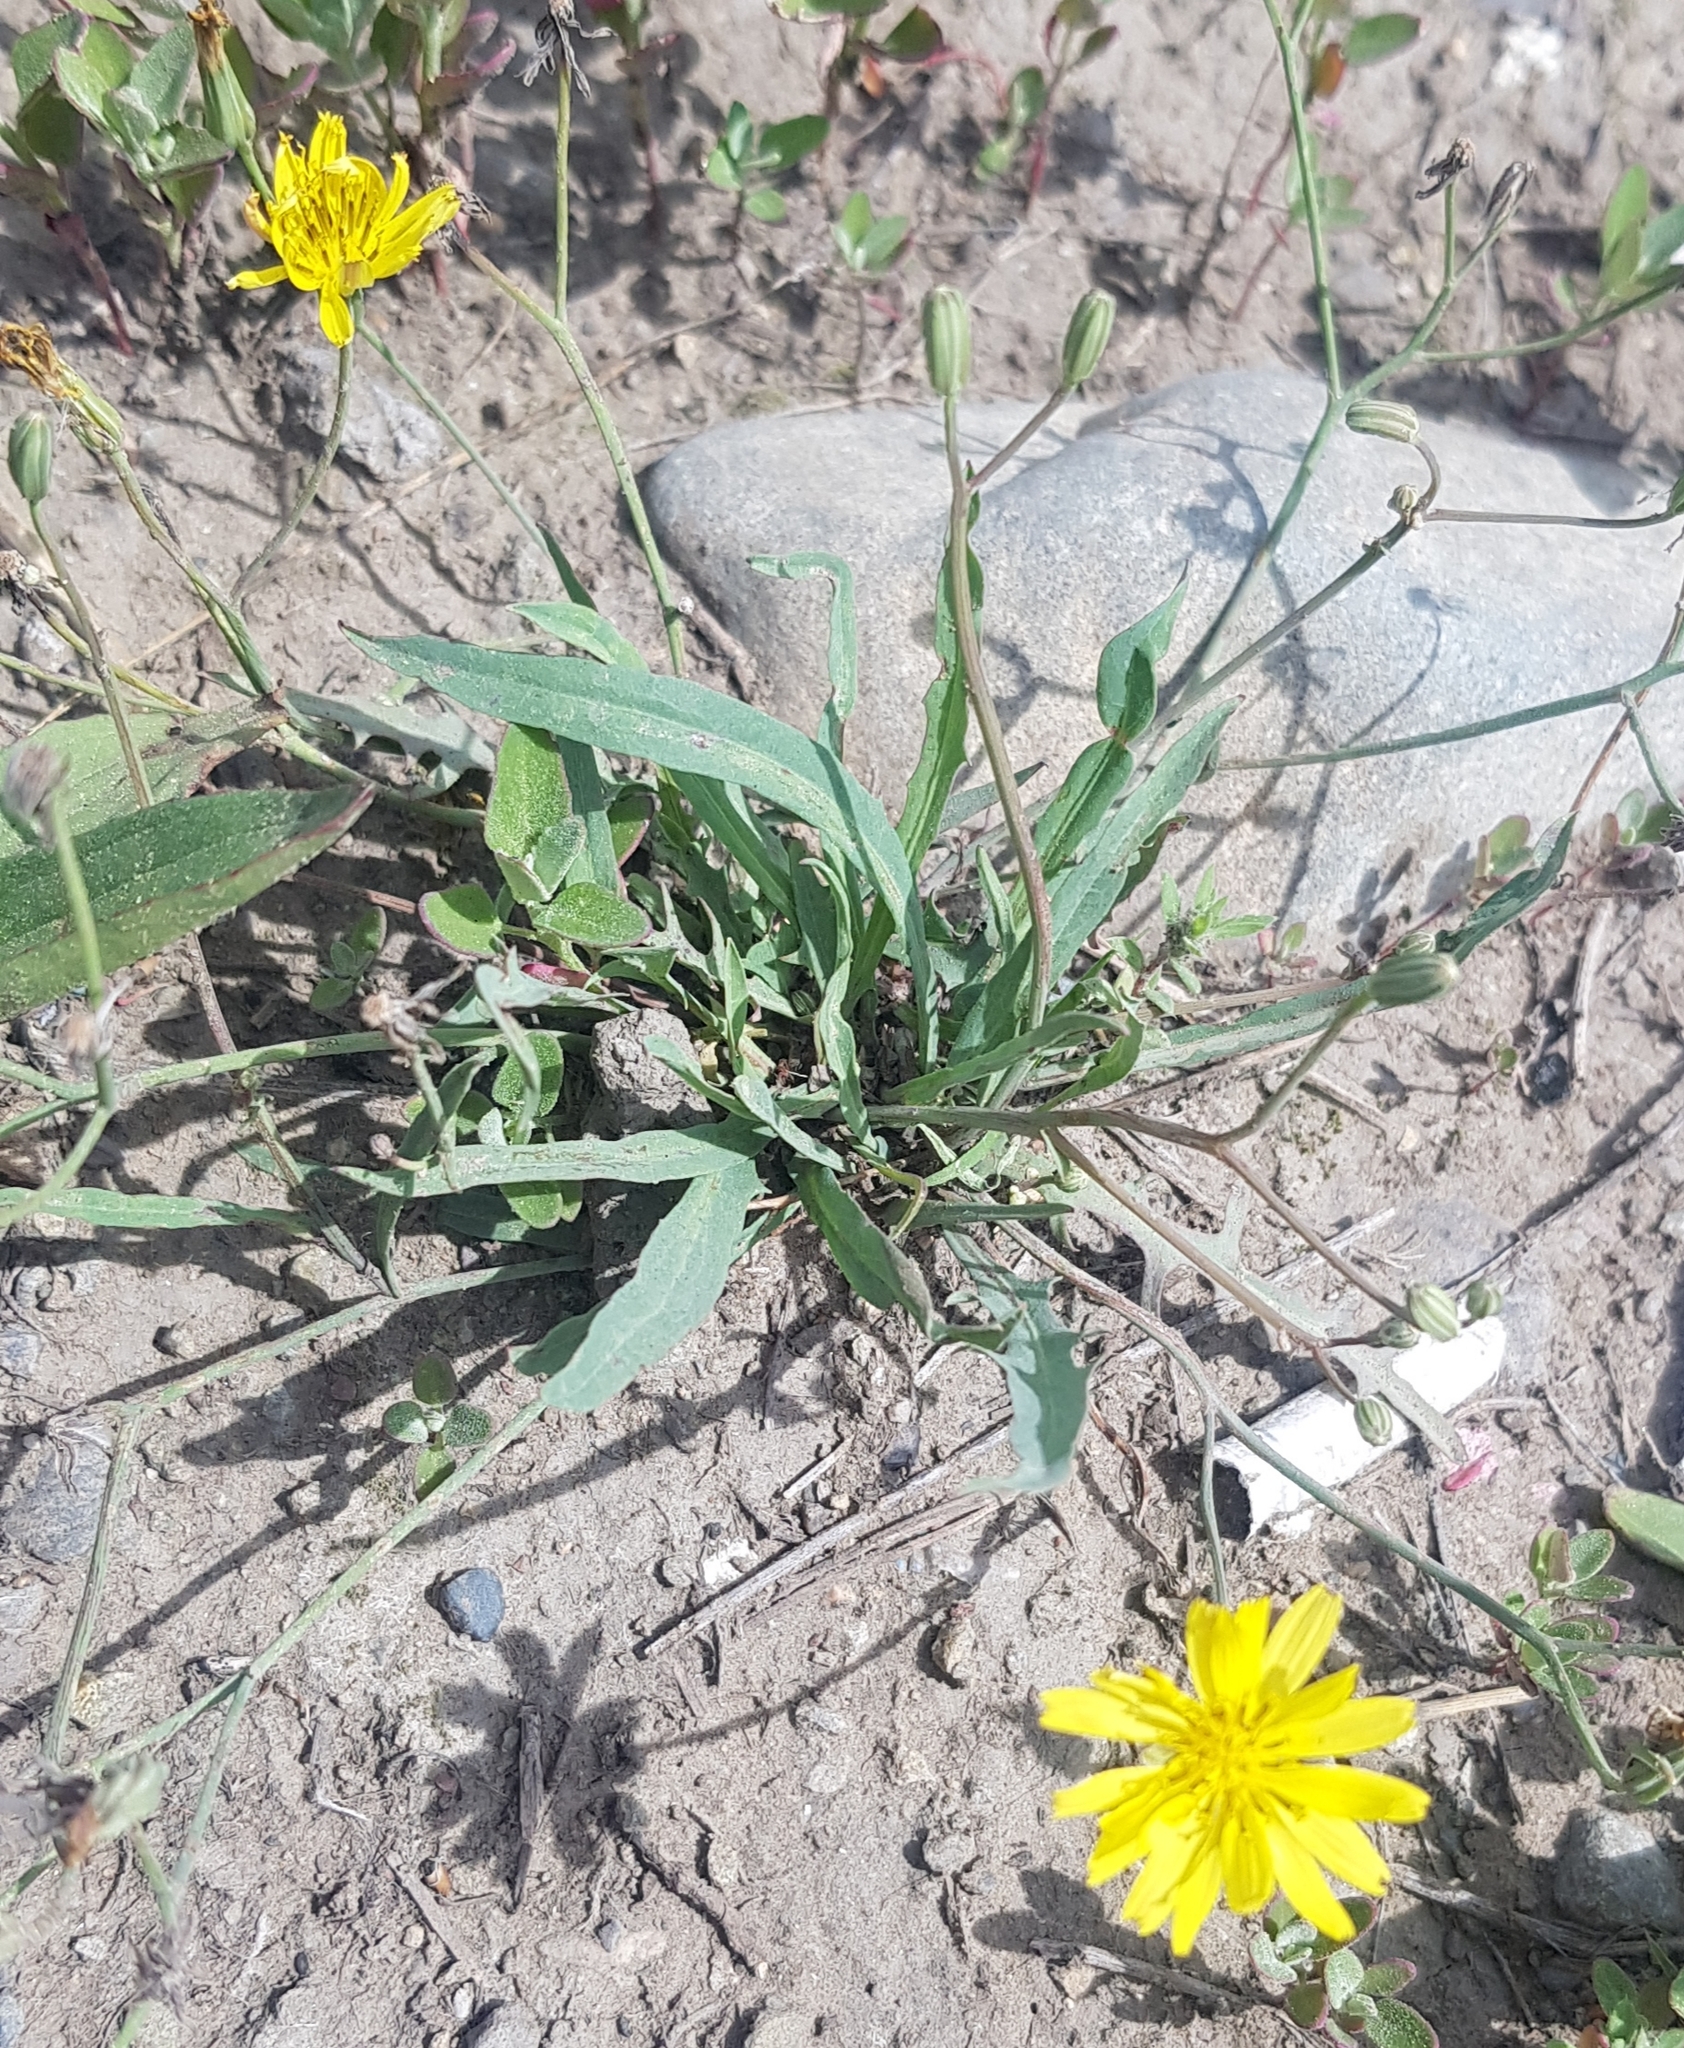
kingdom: Plantae
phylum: Tracheophyta
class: Magnoliopsida
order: Asterales
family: Asteraceae
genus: Ixeris
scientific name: Ixeris chinensis
